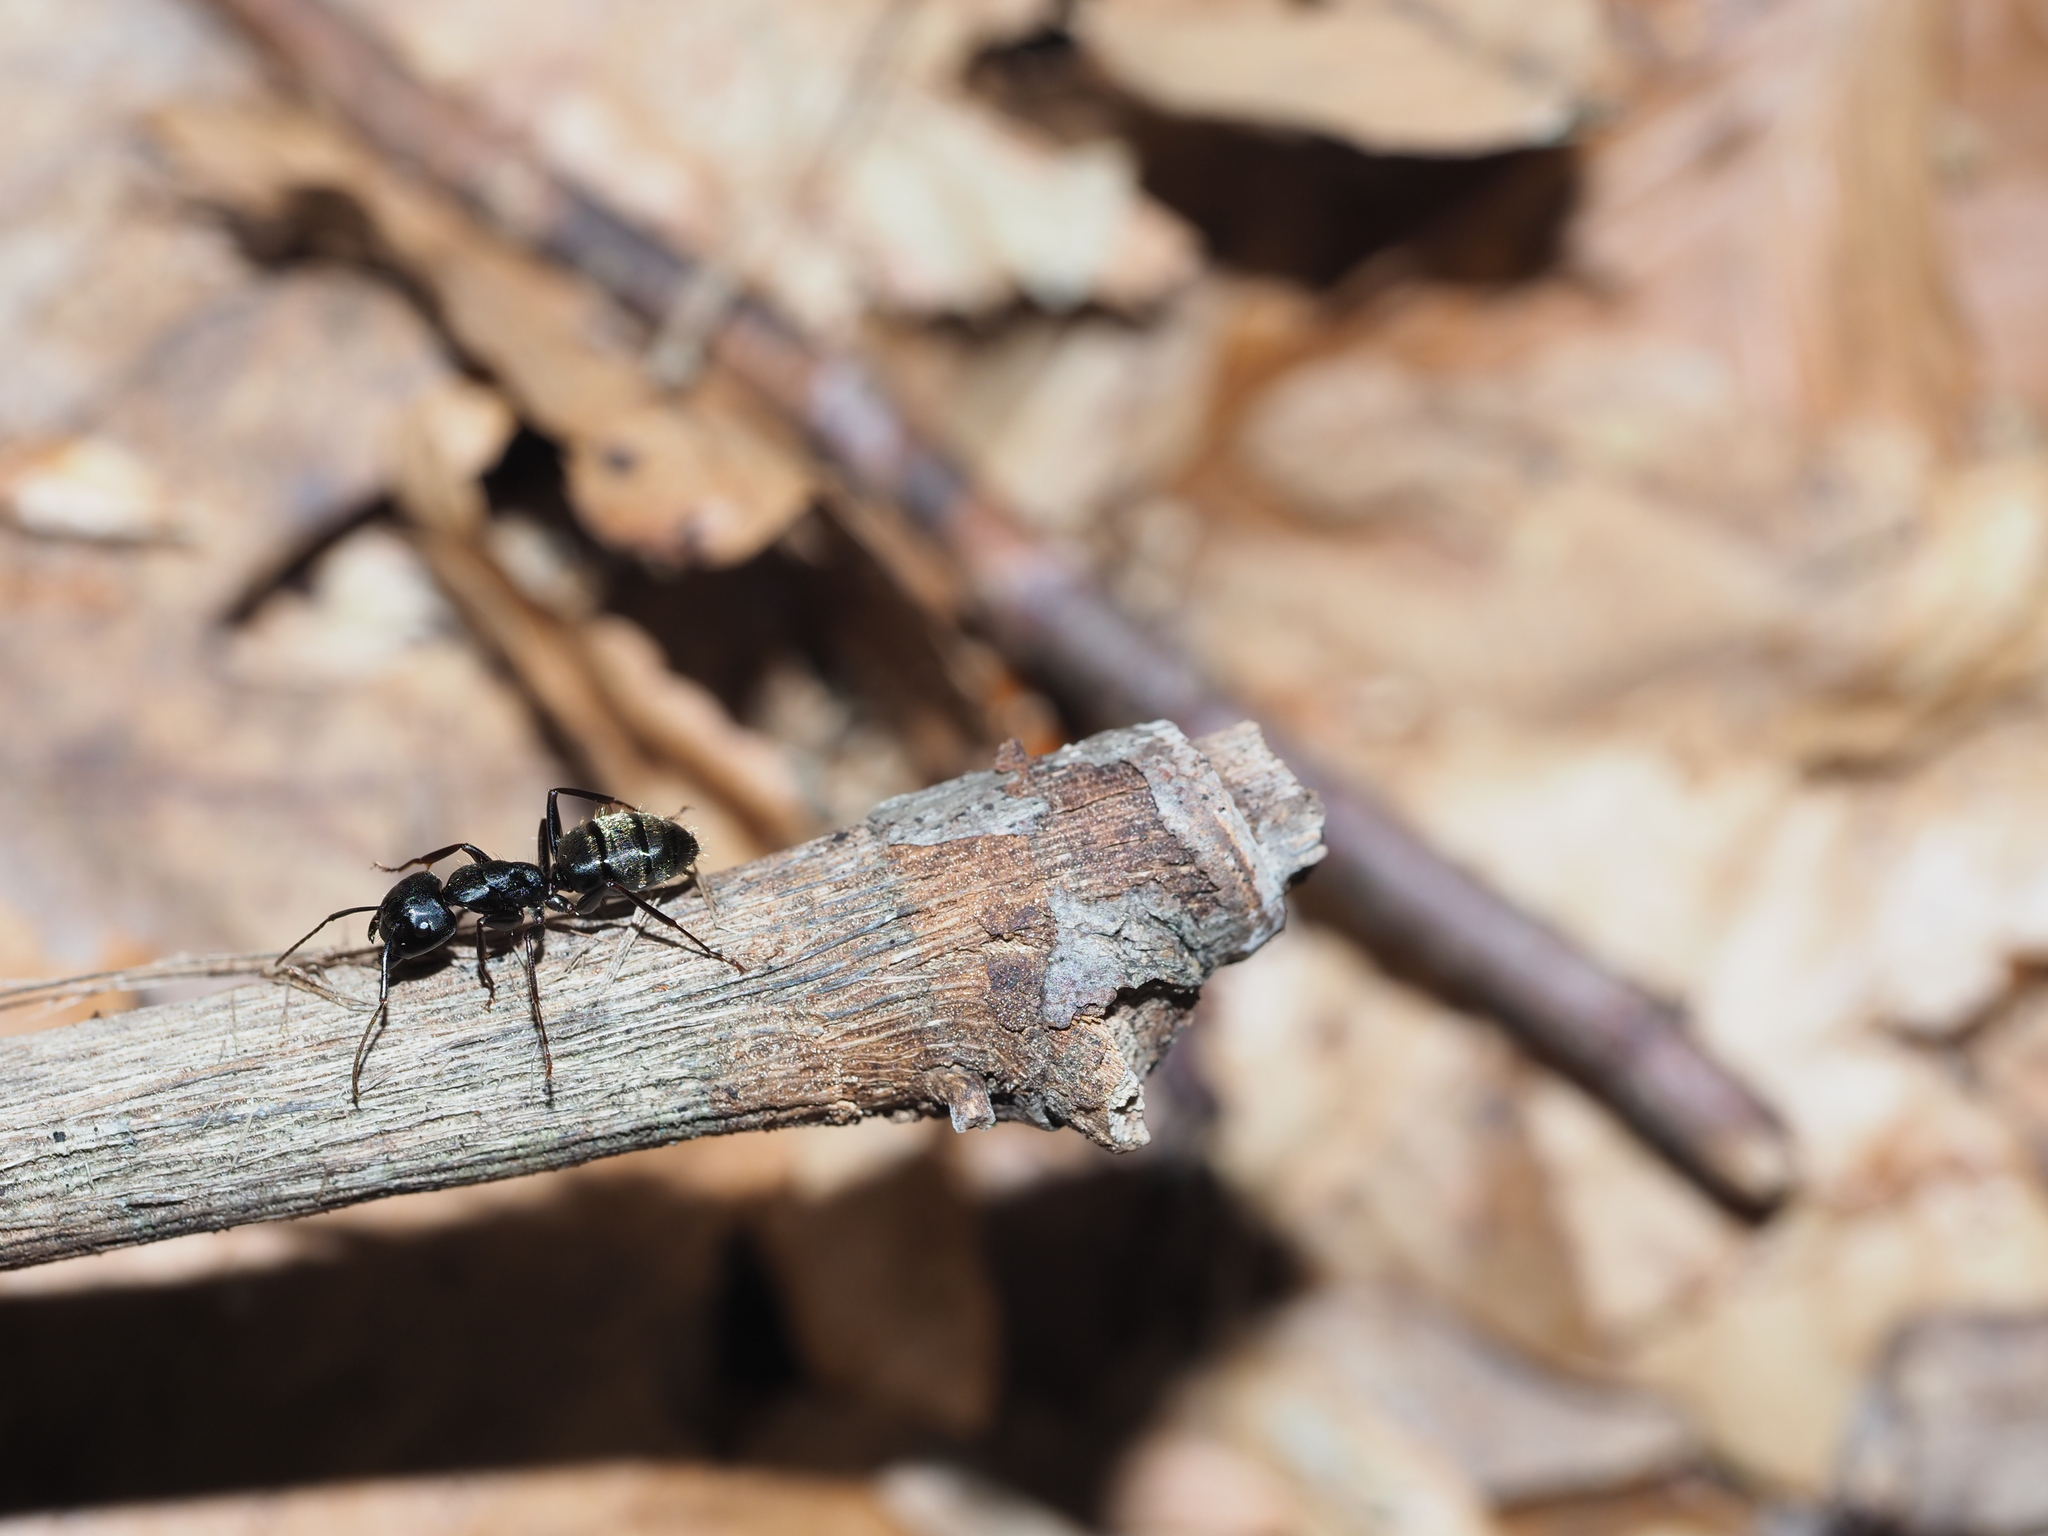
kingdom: Animalia
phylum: Arthropoda
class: Insecta
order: Hymenoptera
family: Formicidae
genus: Camponotus
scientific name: Camponotus pennsylvanicus
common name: Black carpenter ant
